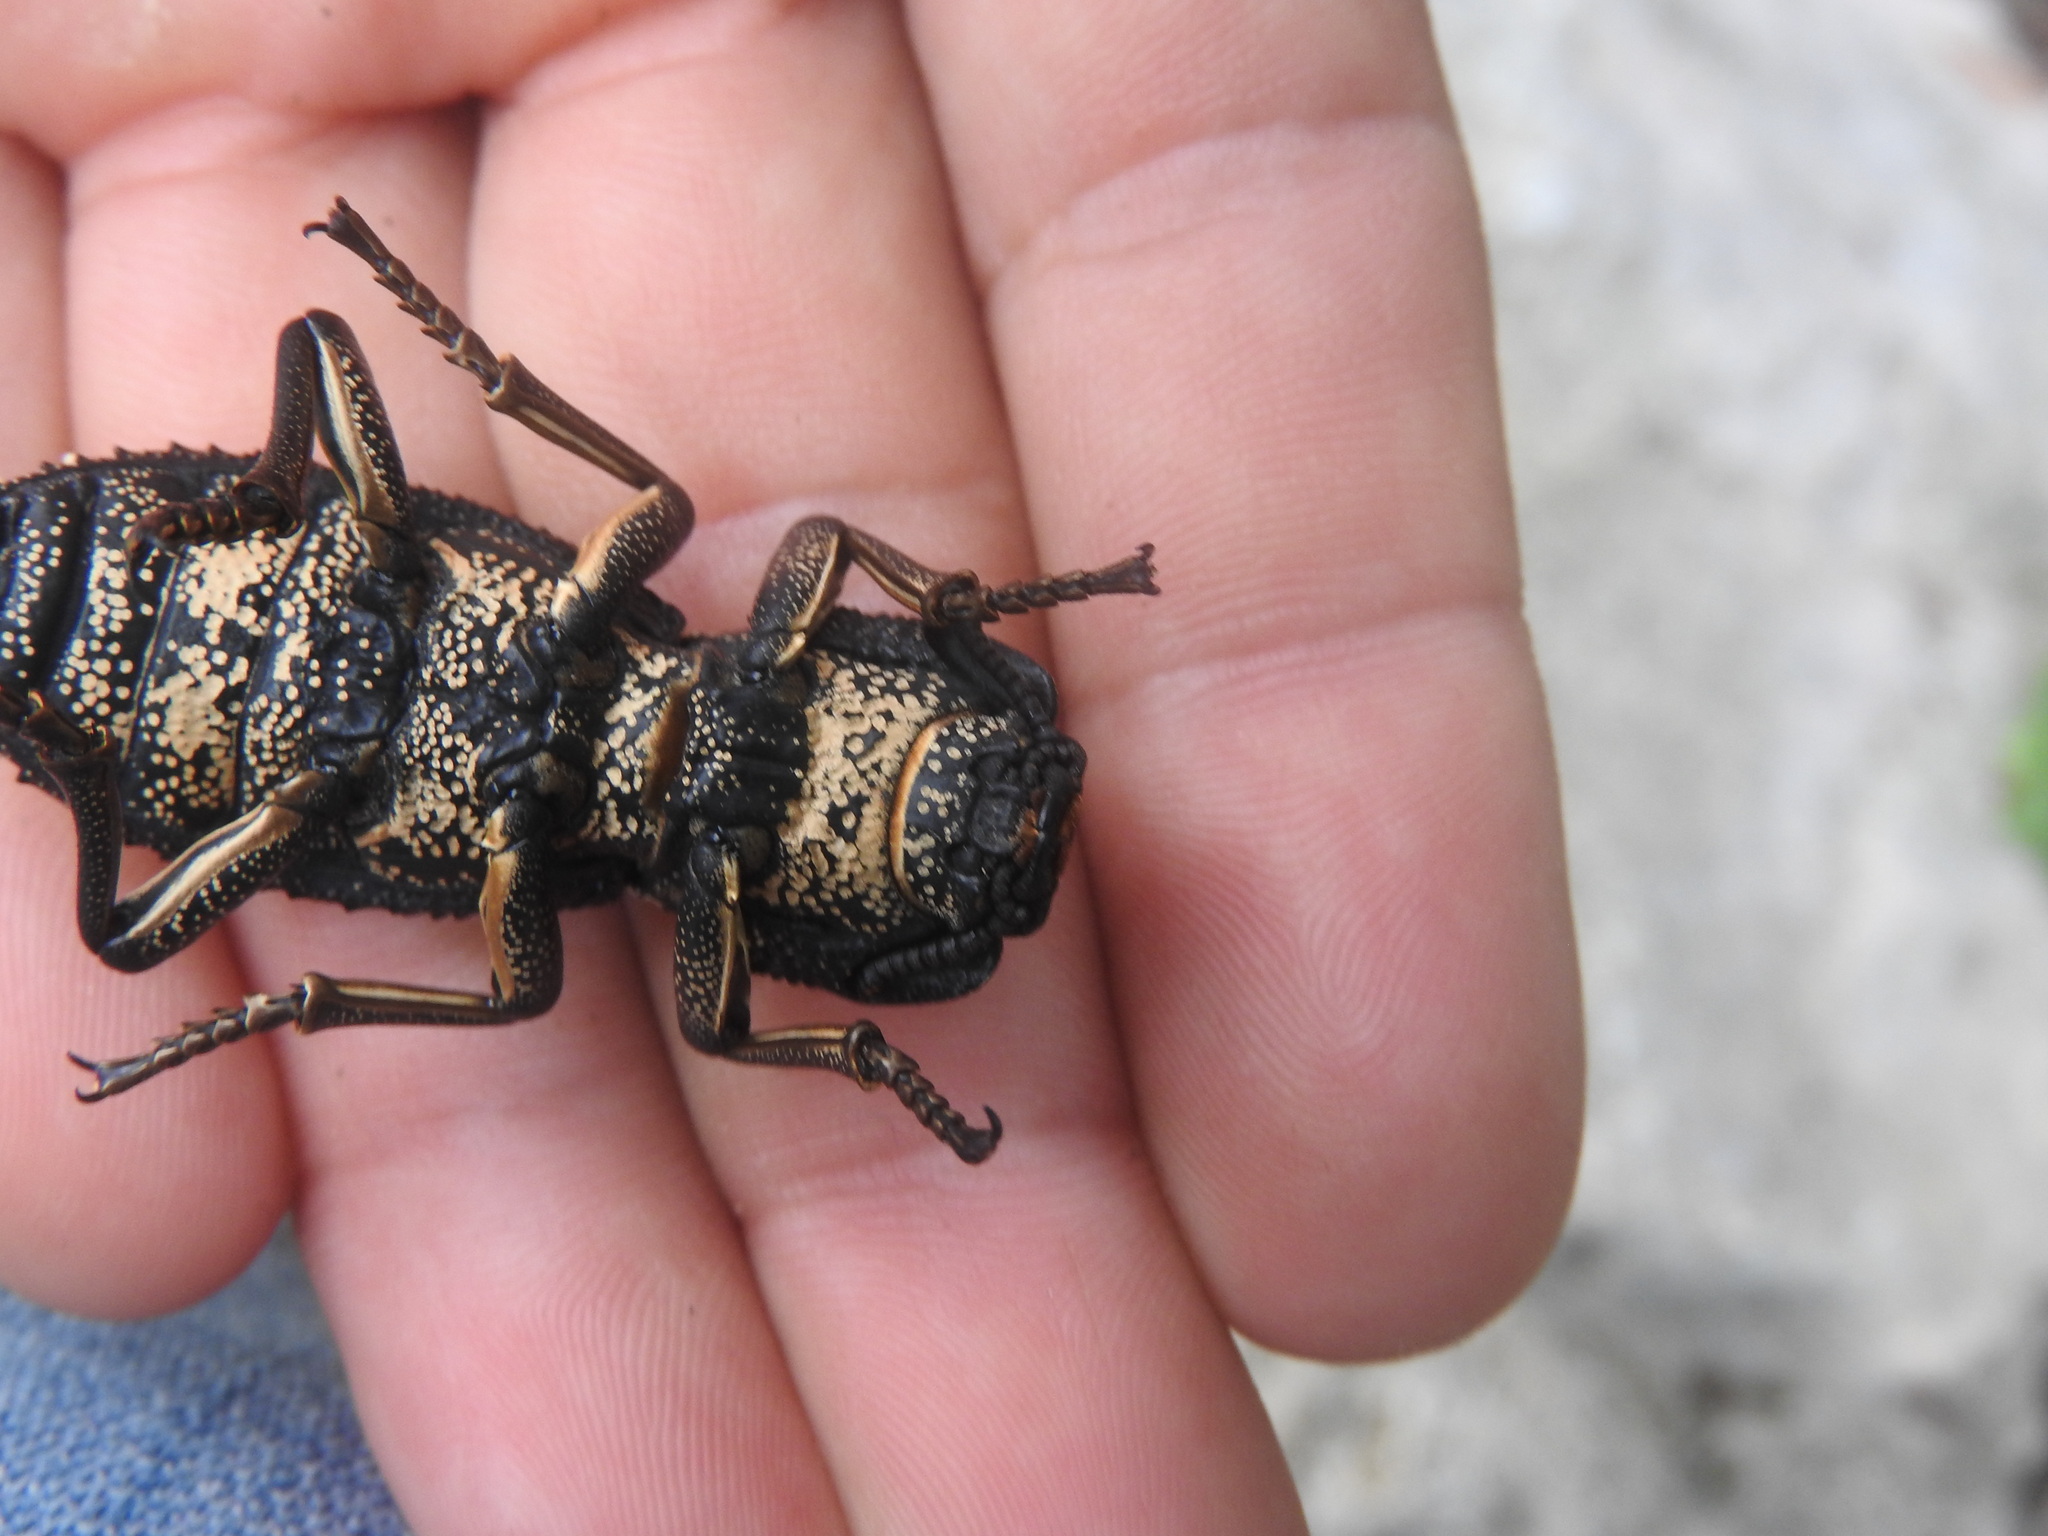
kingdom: Animalia
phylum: Arthropoda
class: Insecta
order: Coleoptera
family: Zopheridae
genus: Zopherus
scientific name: Zopherus
